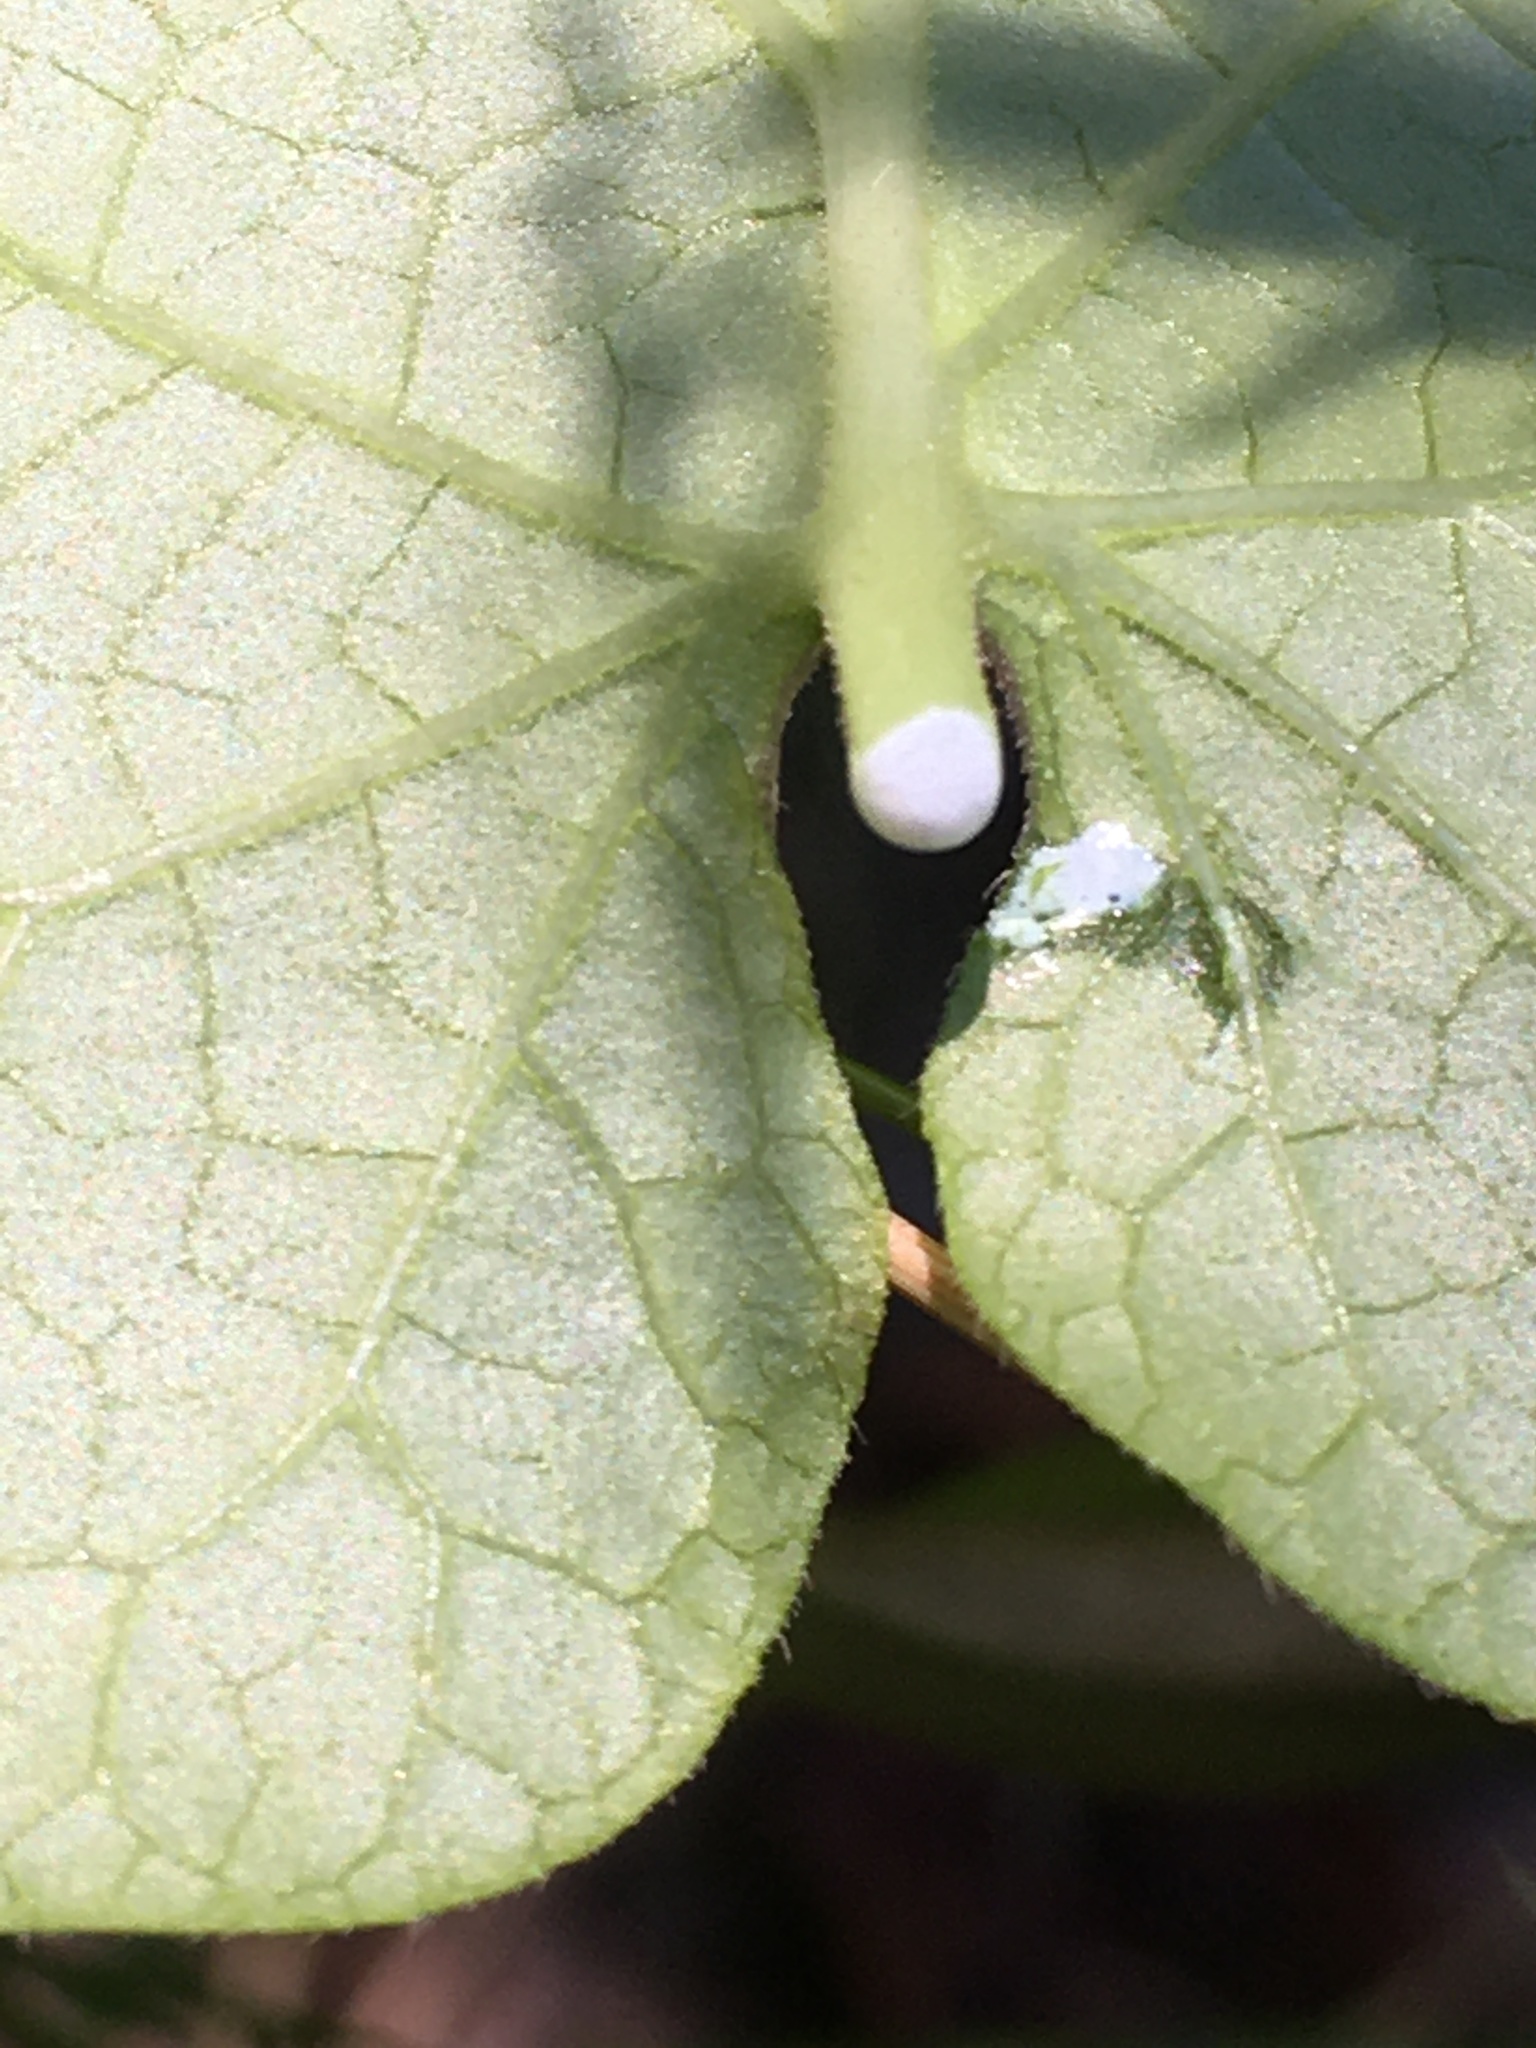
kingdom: Plantae
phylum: Tracheophyta
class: Magnoliopsida
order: Gentianales
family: Apocynaceae
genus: Gonolobus
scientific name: Gonolobus suberosus
